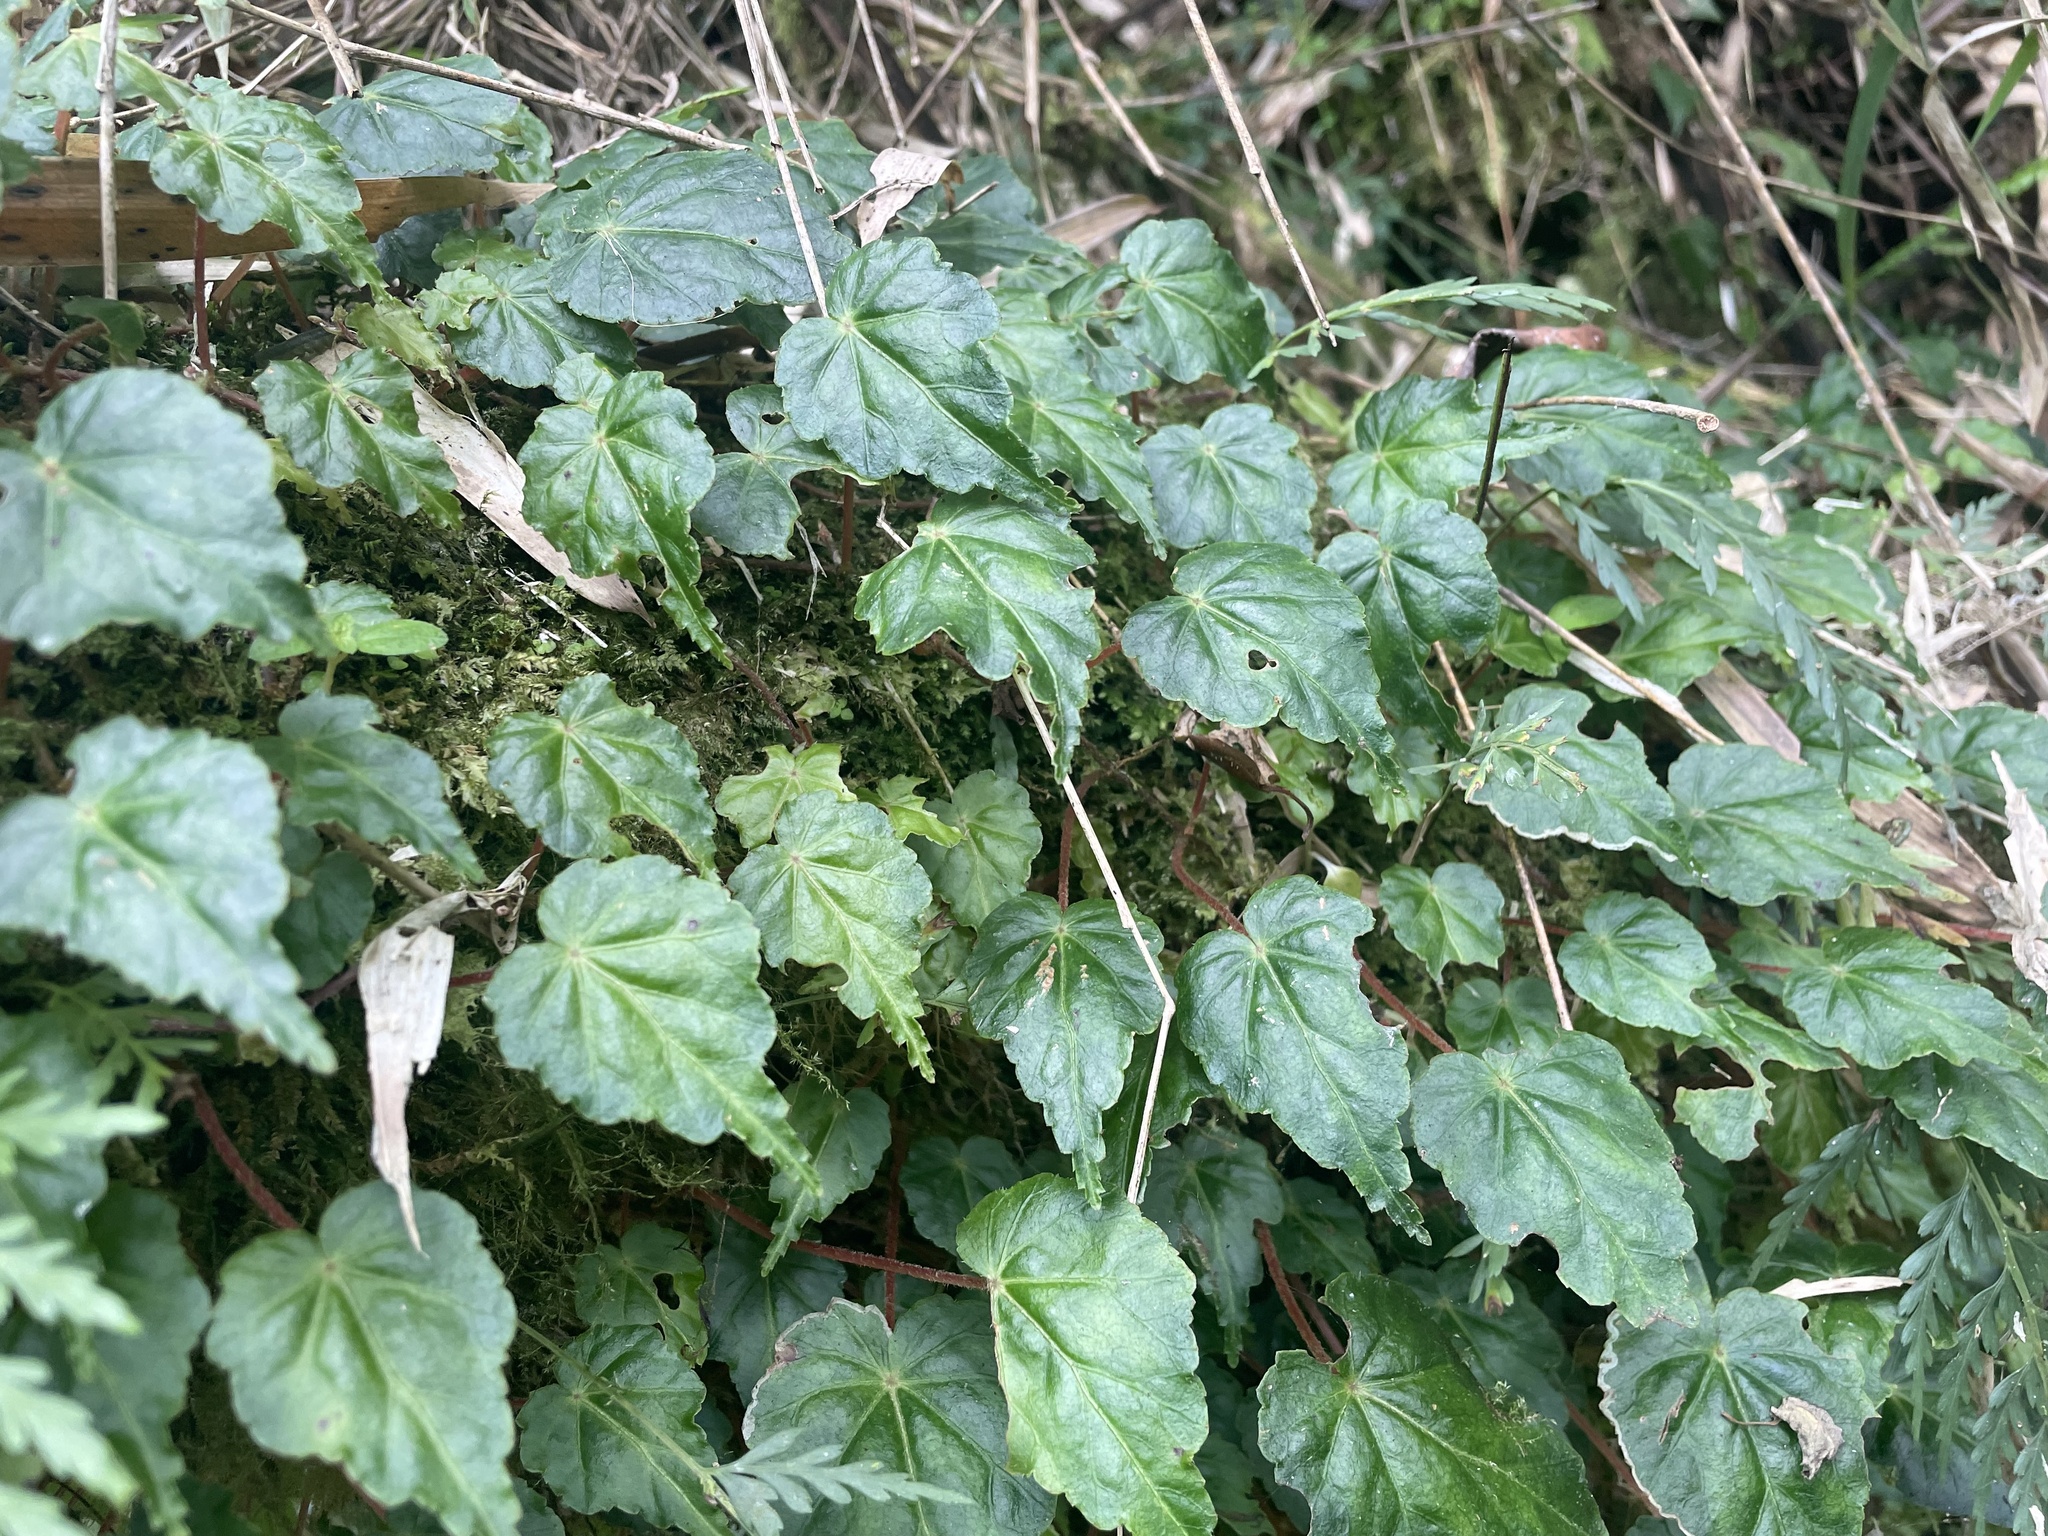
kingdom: Plantae
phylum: Tracheophyta
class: Magnoliopsida
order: Cucurbitales
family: Begoniaceae
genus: Begonia
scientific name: Begonia maurandiae
